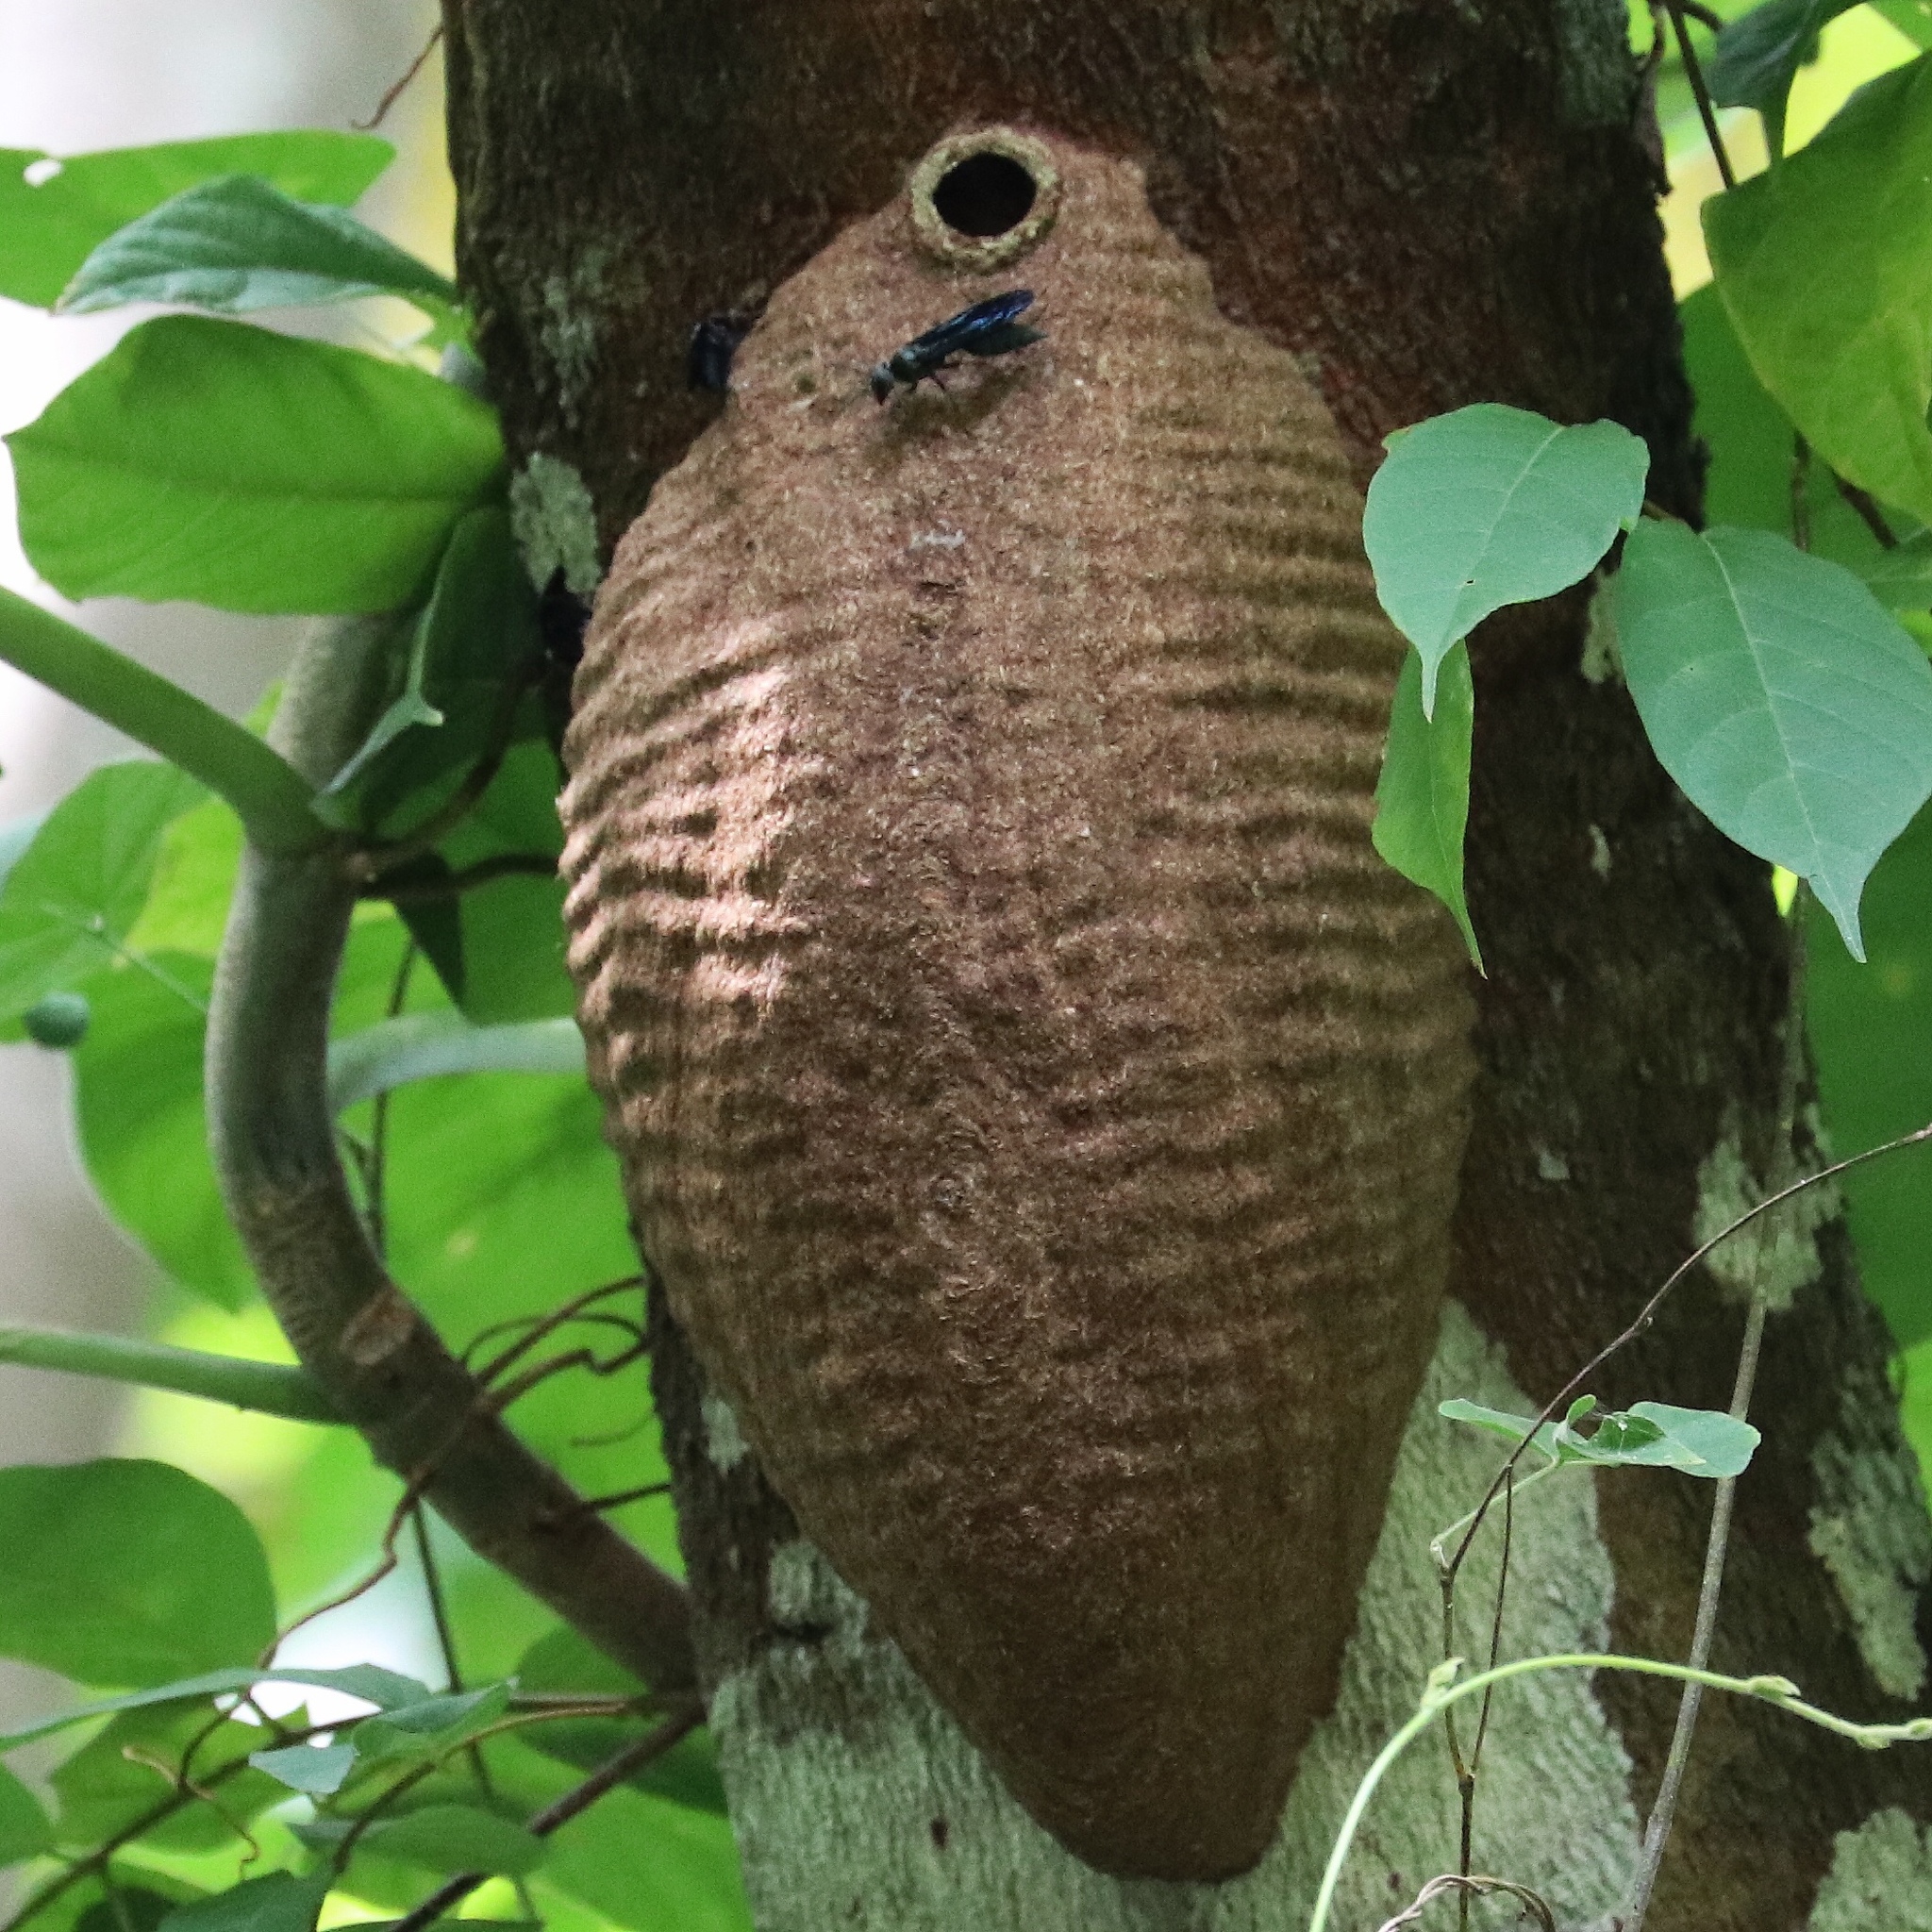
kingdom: Animalia
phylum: Arthropoda
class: Insecta
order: Hymenoptera
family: Vespidae
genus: Synoeca
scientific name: Synoeca septentrionalis
